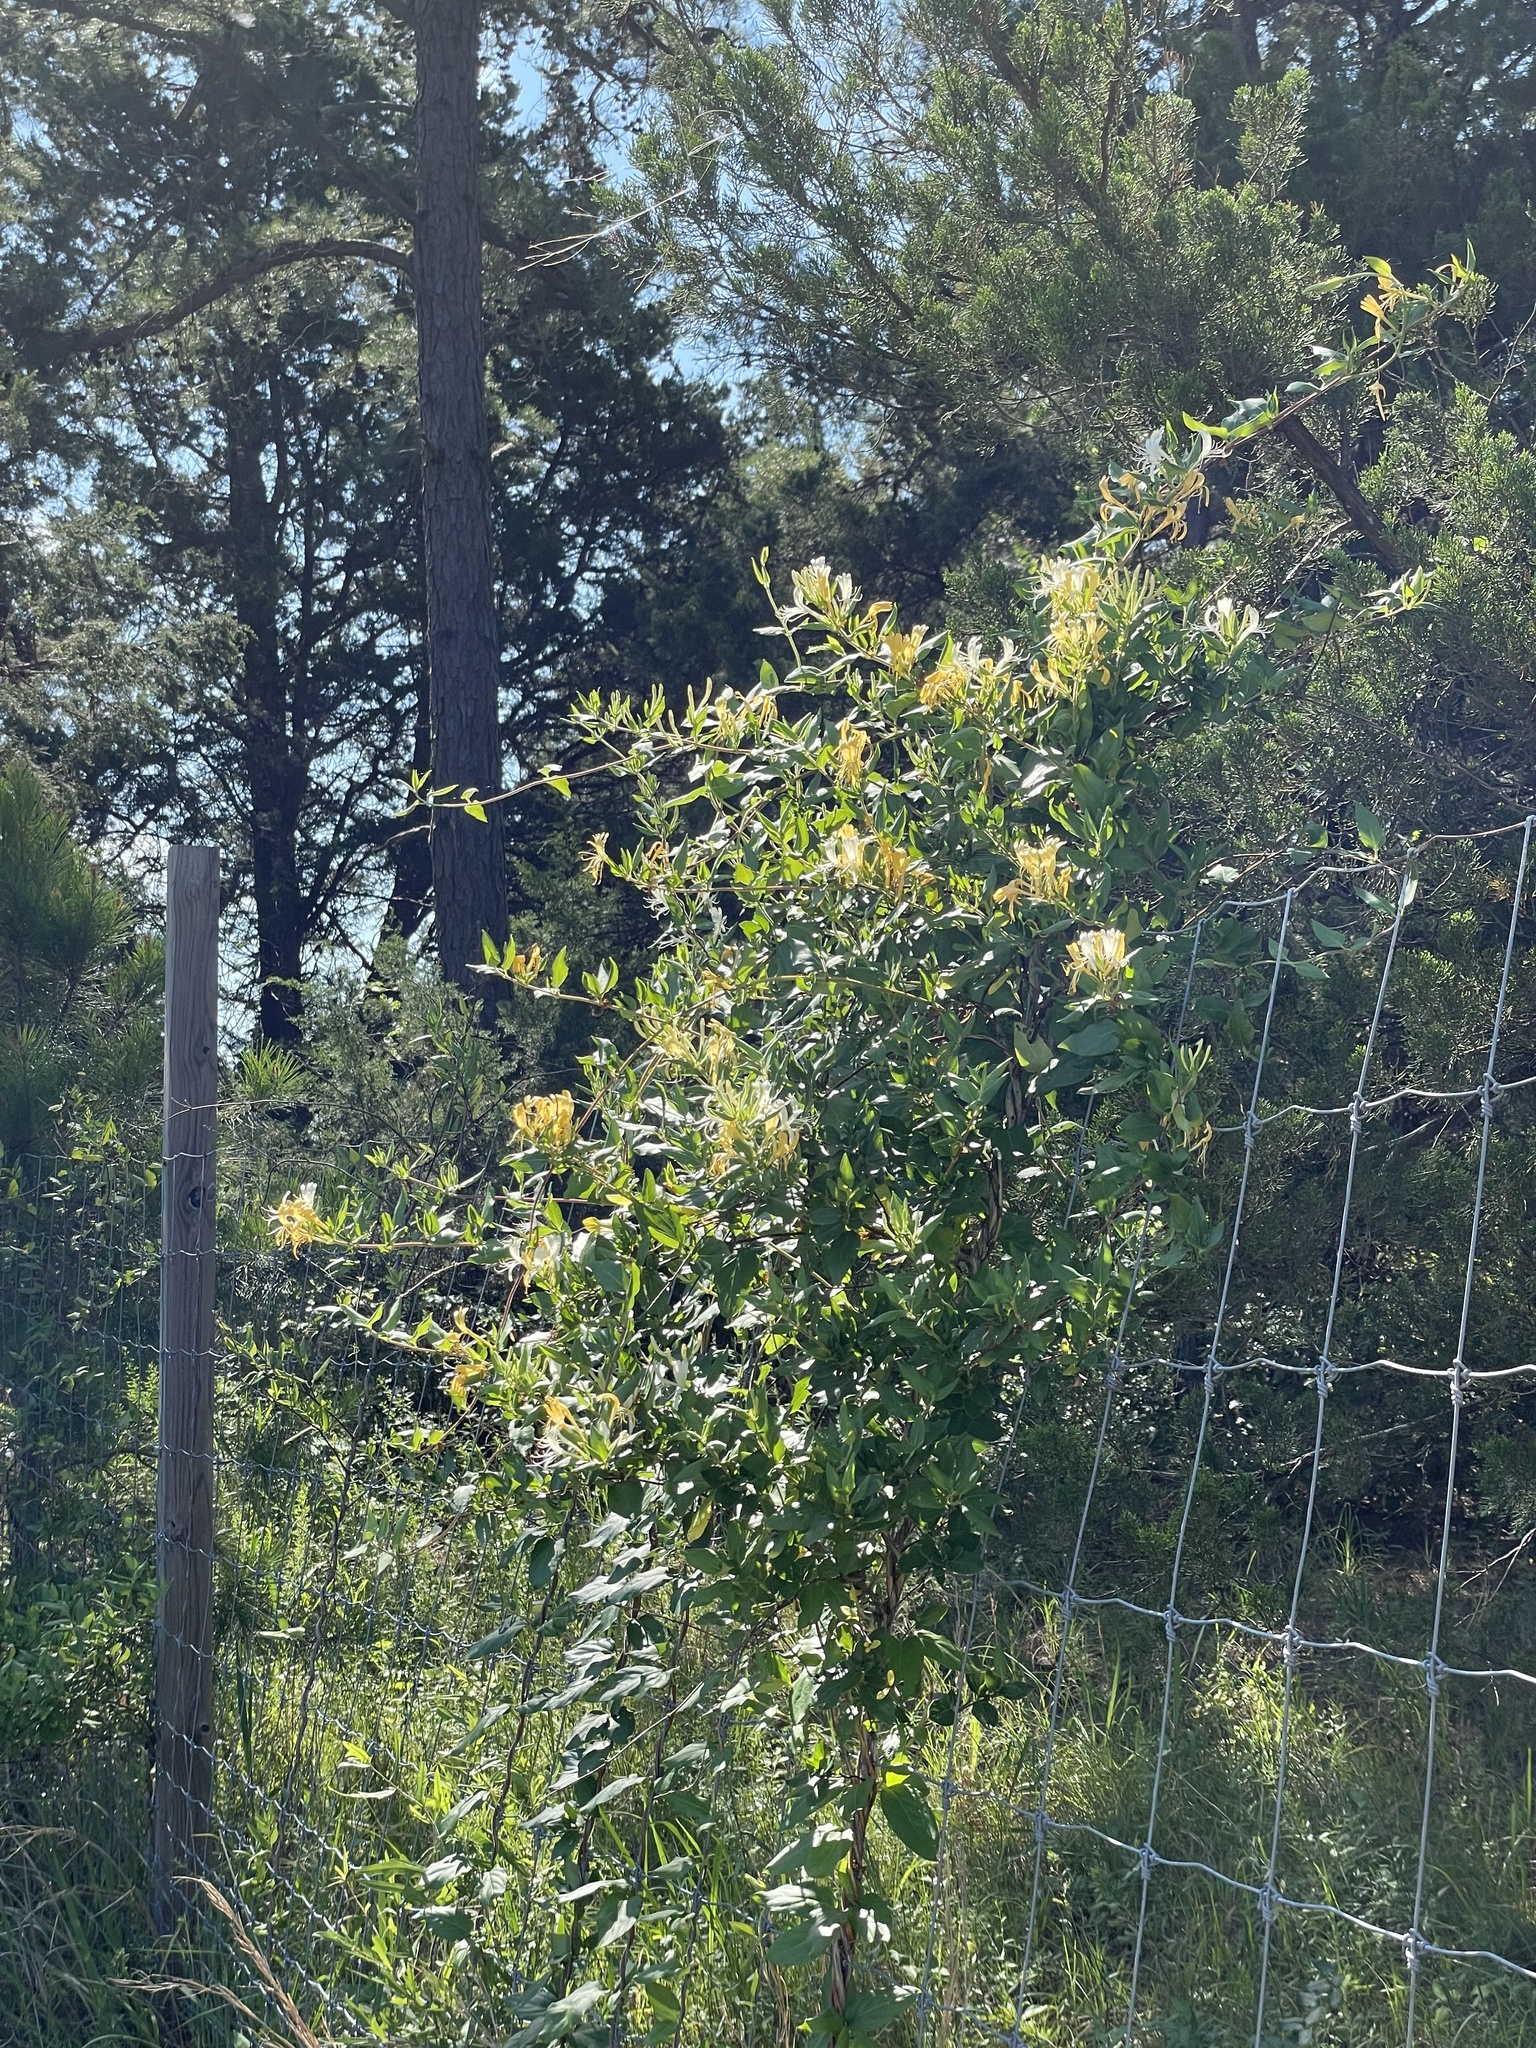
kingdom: Plantae
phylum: Tracheophyta
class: Magnoliopsida
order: Dipsacales
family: Caprifoliaceae
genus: Lonicera
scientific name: Lonicera japonica
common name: Japanese honeysuckle
